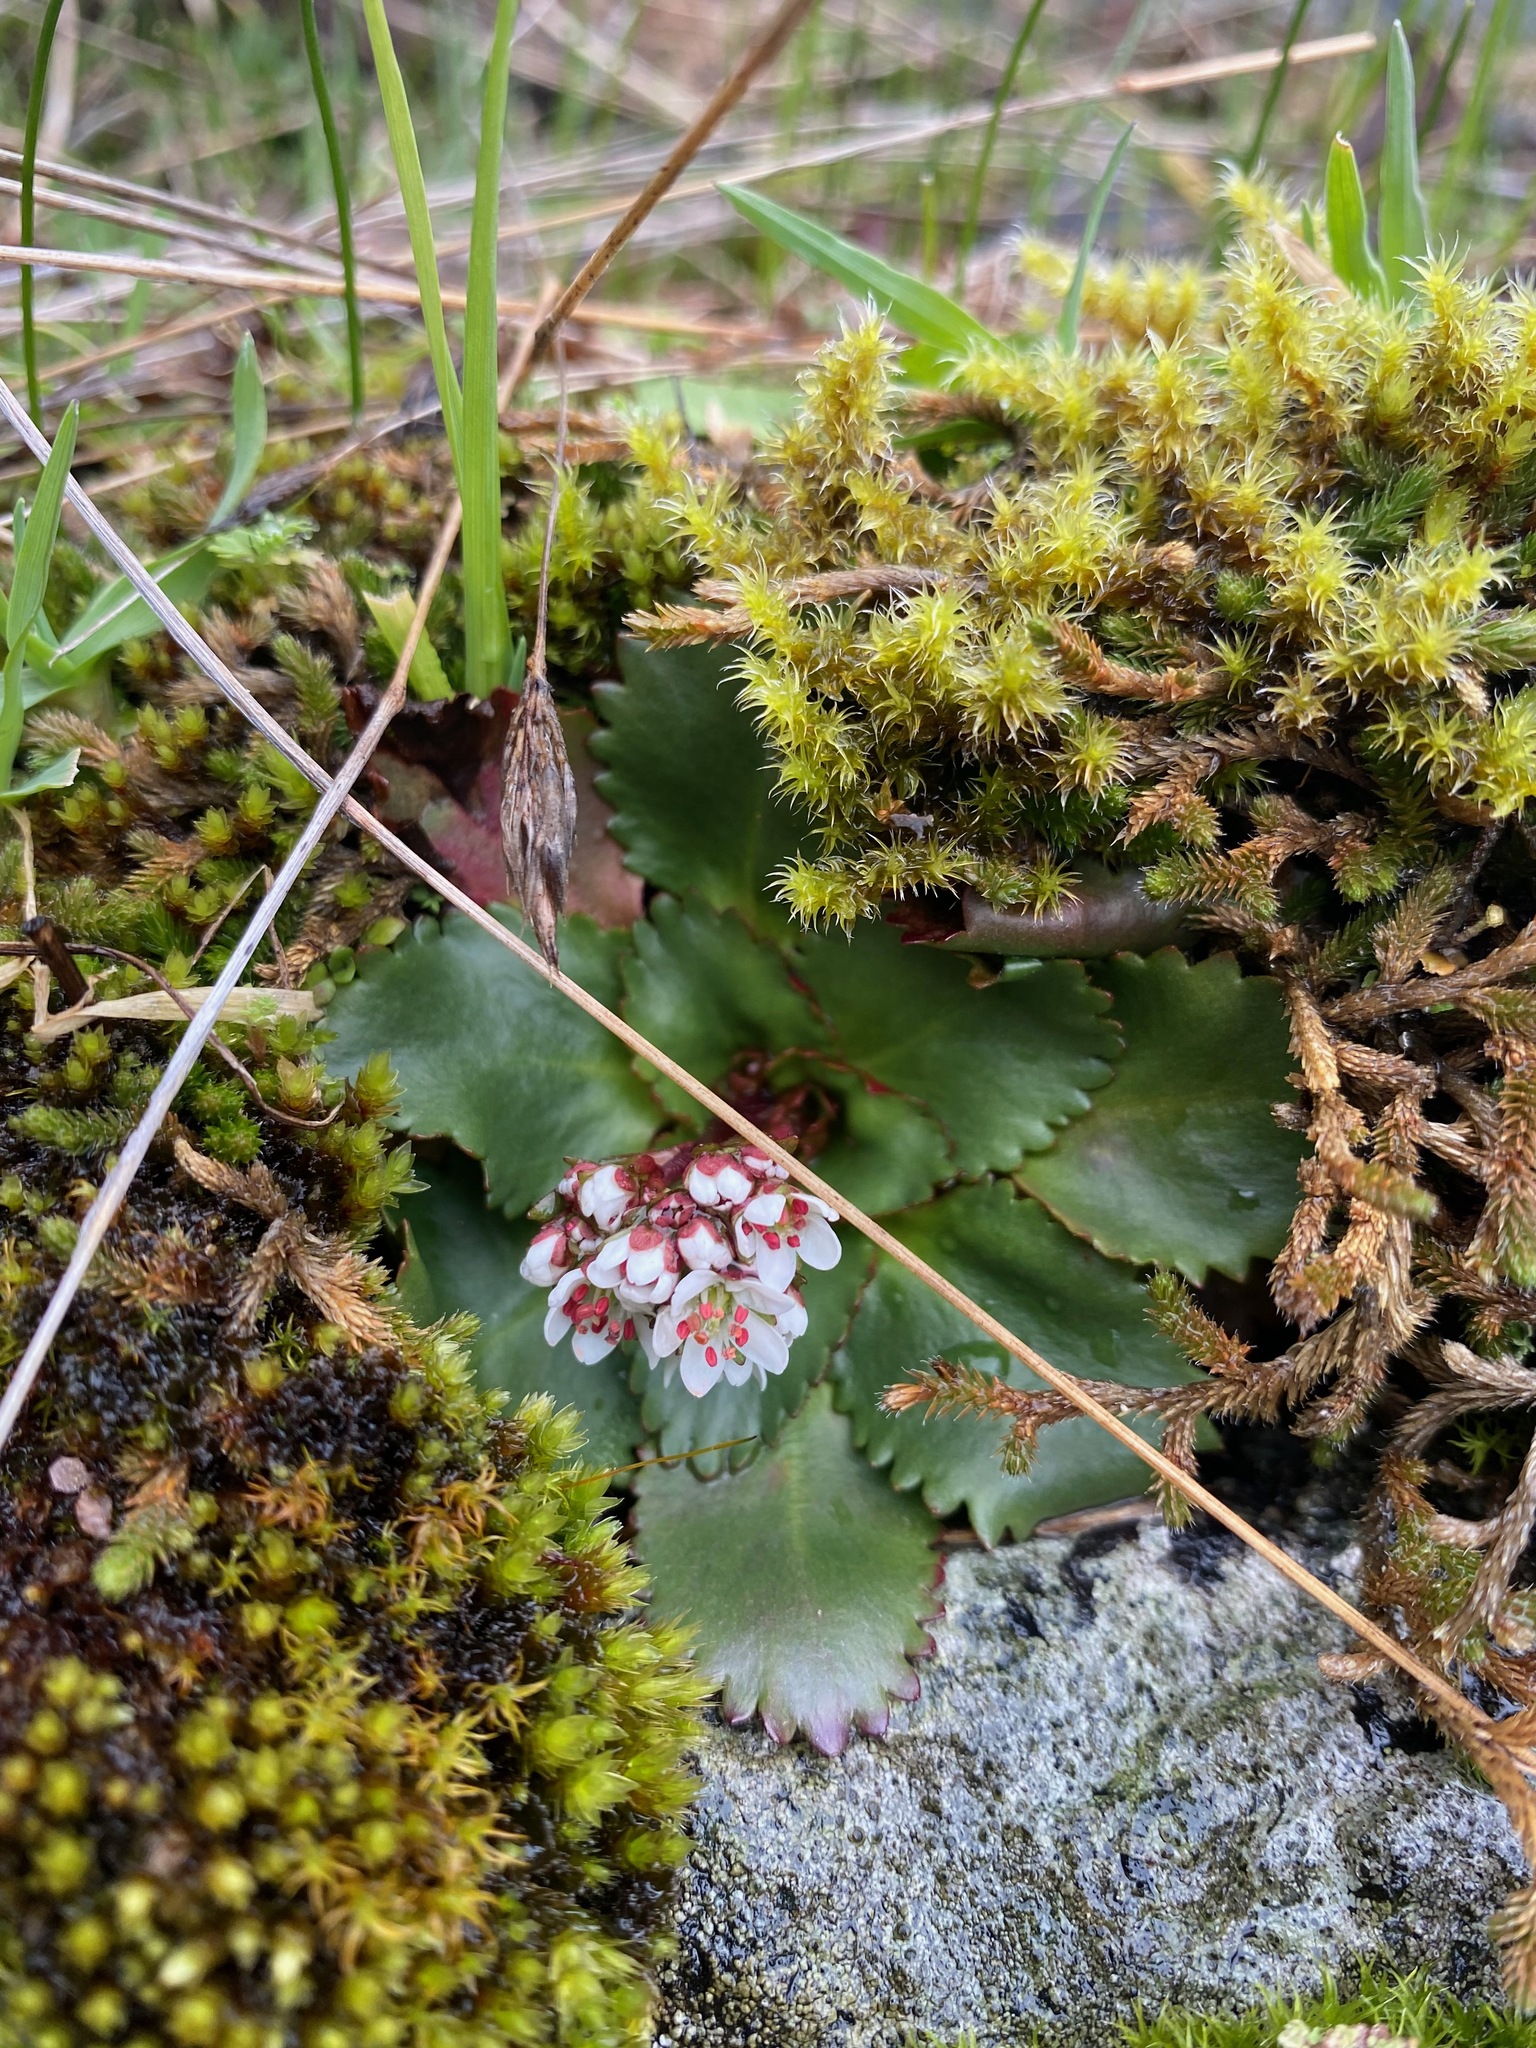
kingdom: Plantae
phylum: Tracheophyta
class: Magnoliopsida
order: Saxifragales
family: Saxifragaceae
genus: Micranthes
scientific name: Micranthes rufidula
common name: Rustyhair saxifrage
